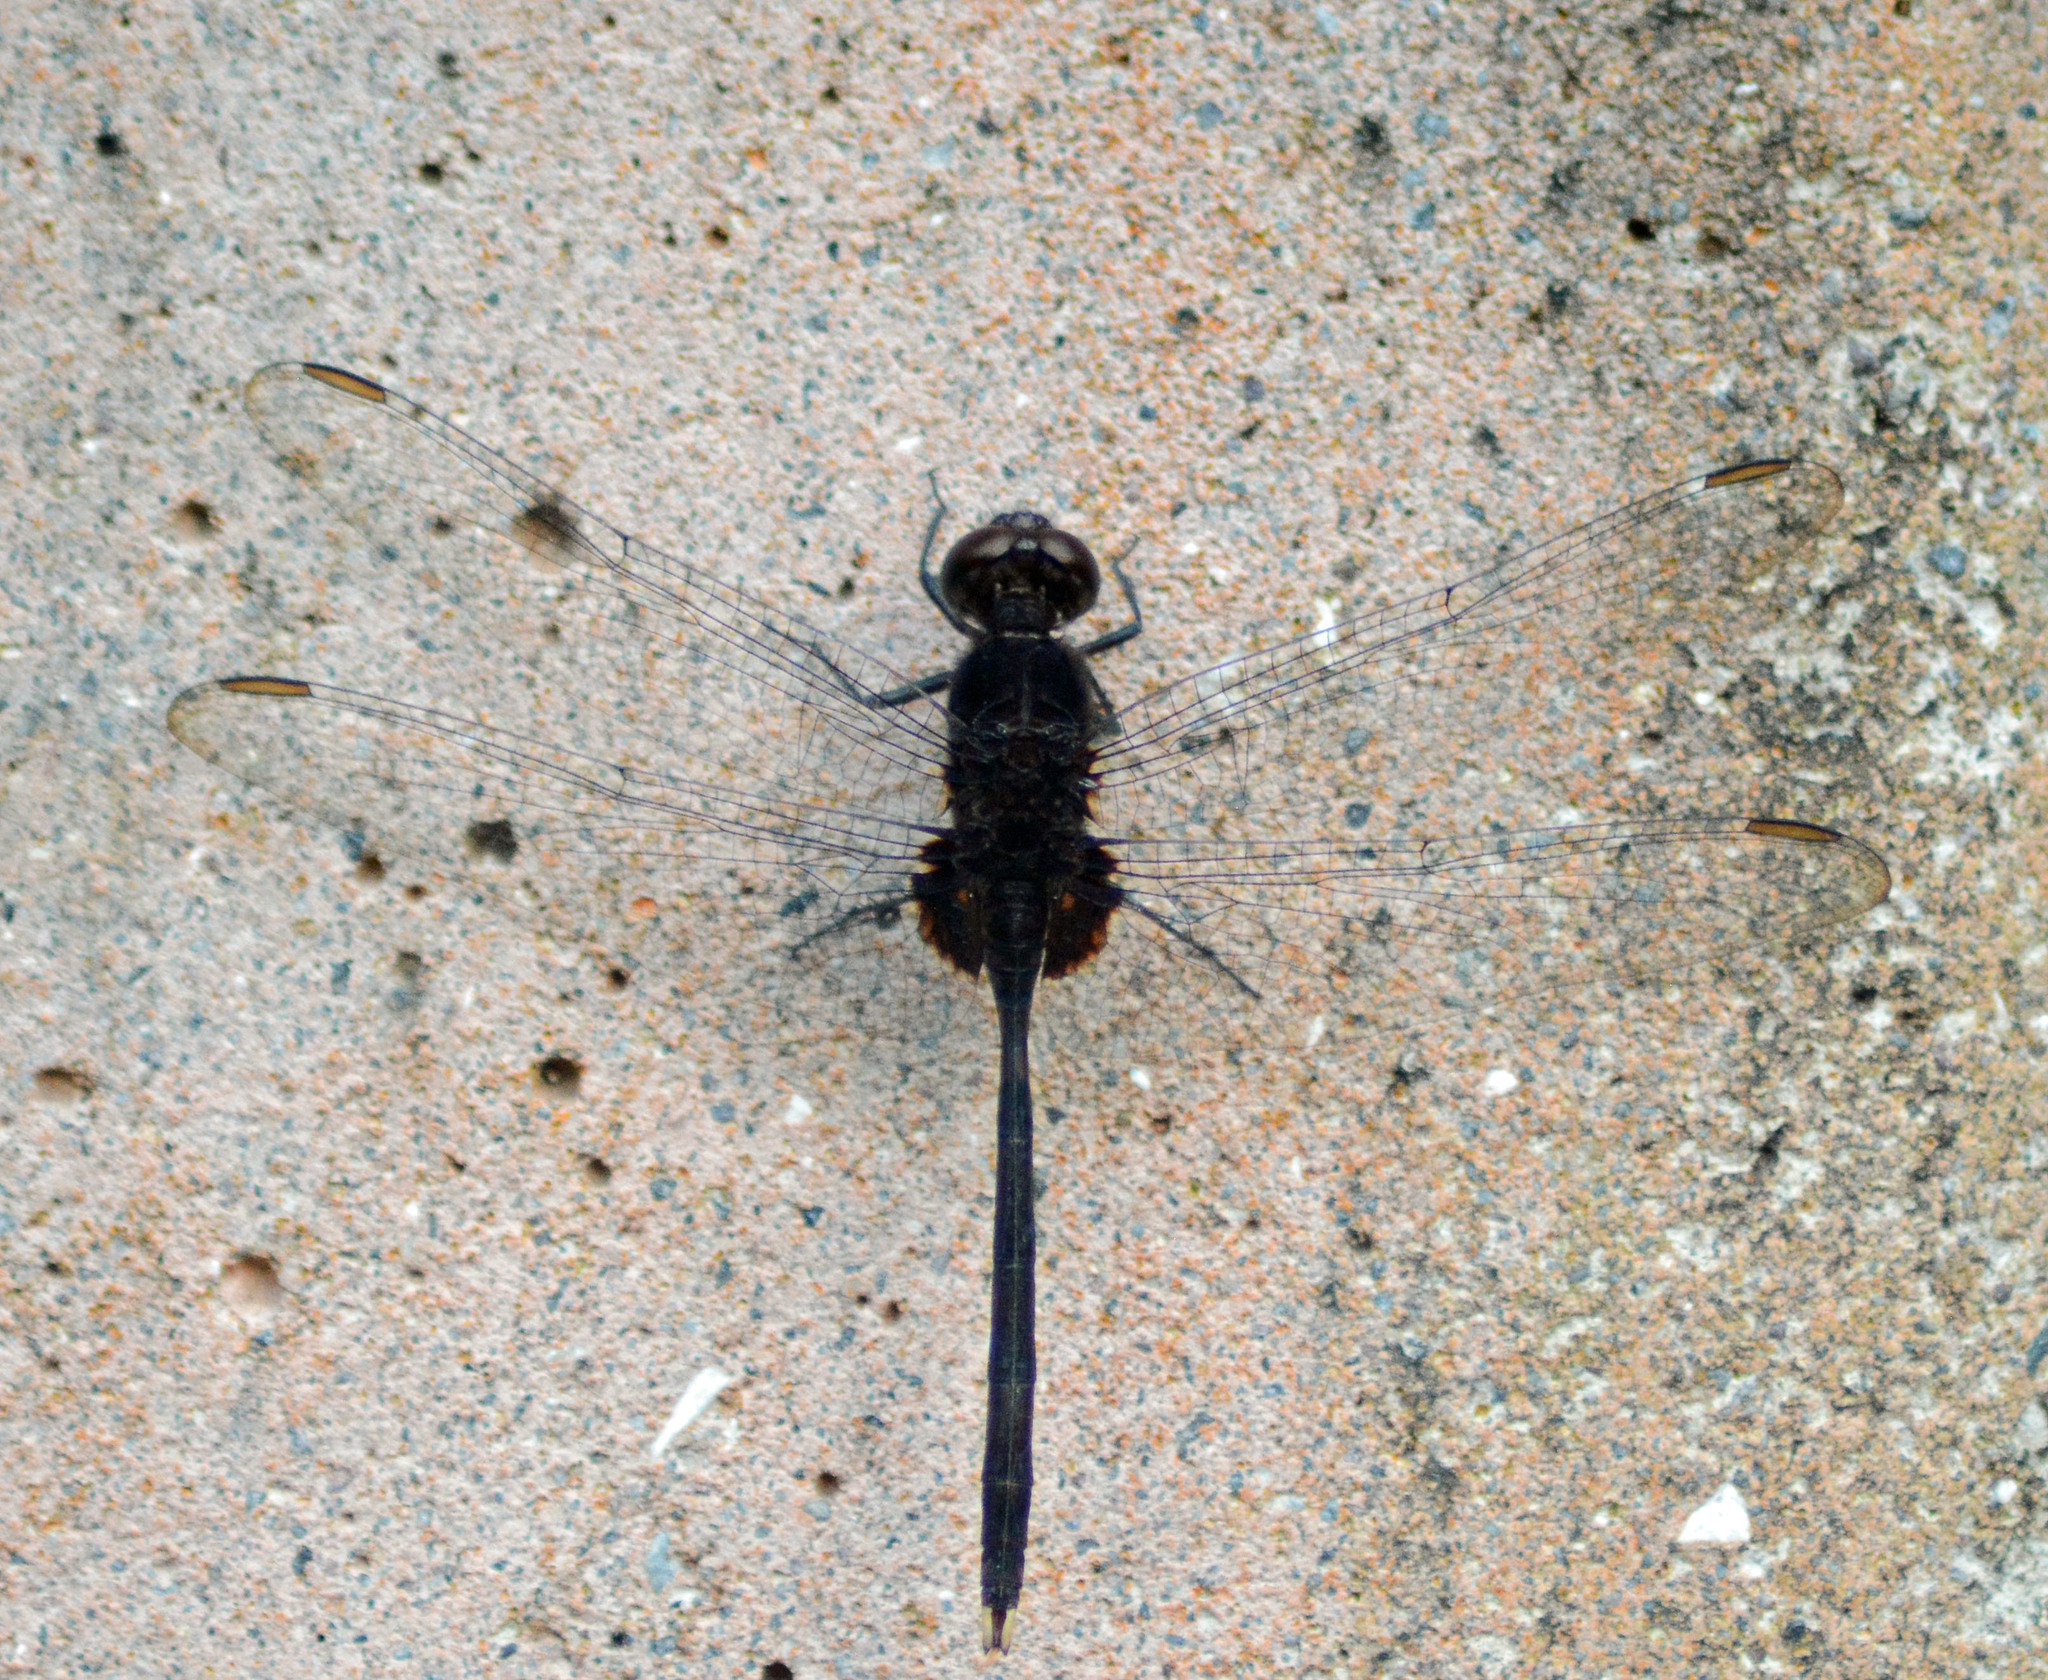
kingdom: Animalia
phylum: Arthropoda
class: Insecta
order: Odonata
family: Libellulidae
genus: Erythemis
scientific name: Erythemis plebeja
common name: Pin-tailed pondhawk
